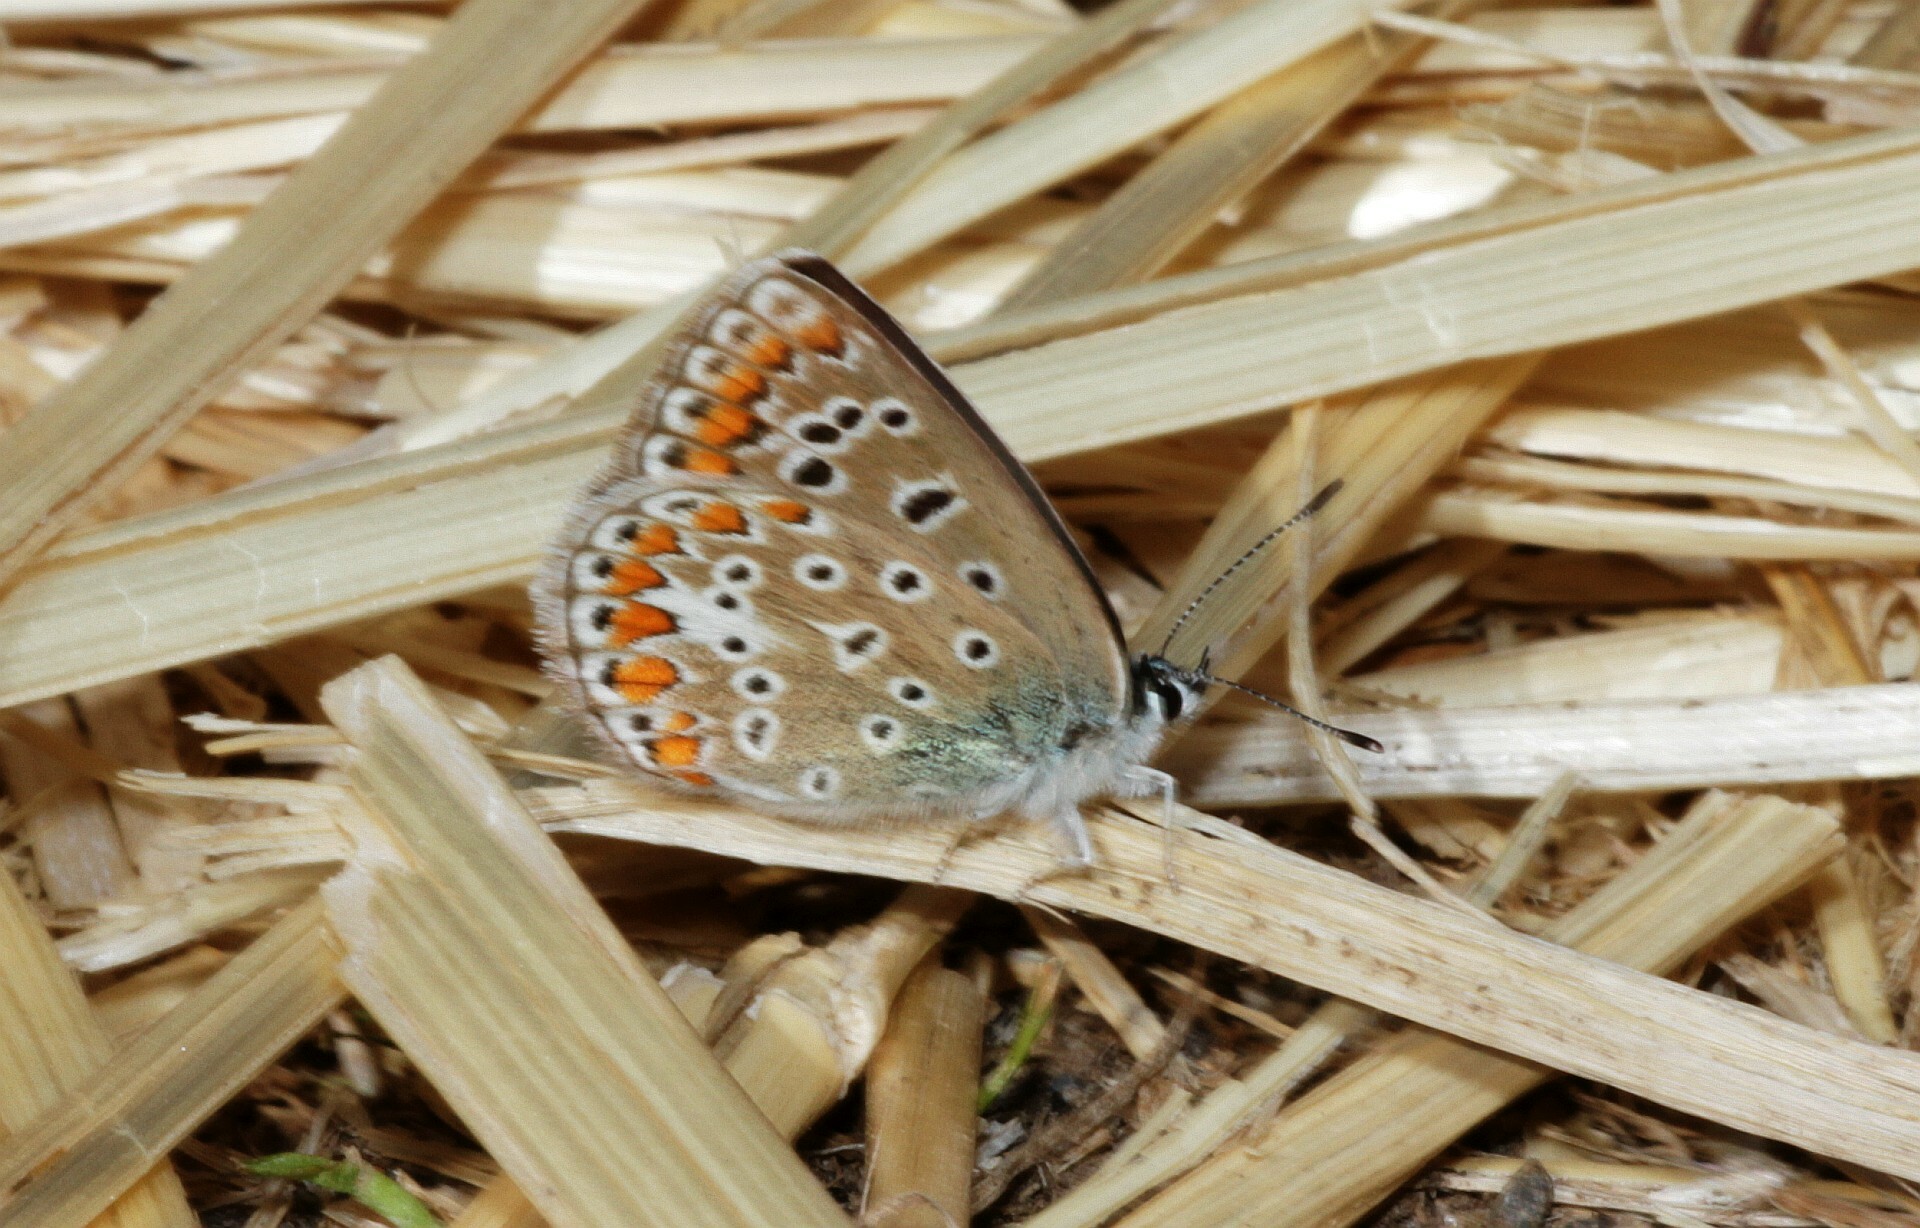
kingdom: Animalia
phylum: Arthropoda
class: Insecta
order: Lepidoptera
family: Lycaenidae
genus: Polyommatus
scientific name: Polyommatus icarus
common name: Common blue
